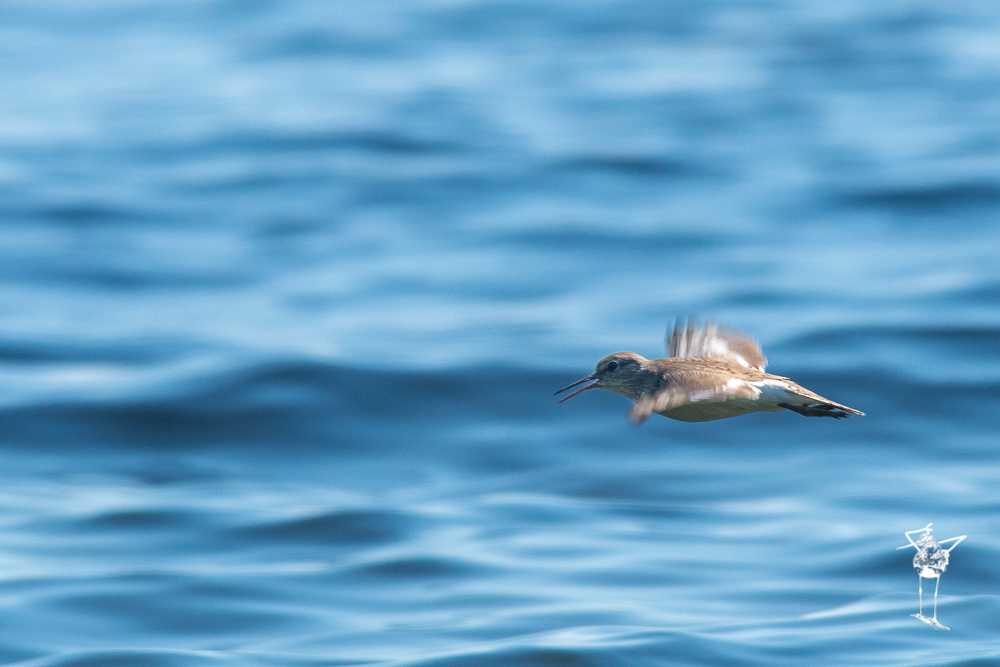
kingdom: Animalia
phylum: Chordata
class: Aves
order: Charadriiformes
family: Scolopacidae
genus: Actitis
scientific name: Actitis hypoleucos
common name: Common sandpiper
